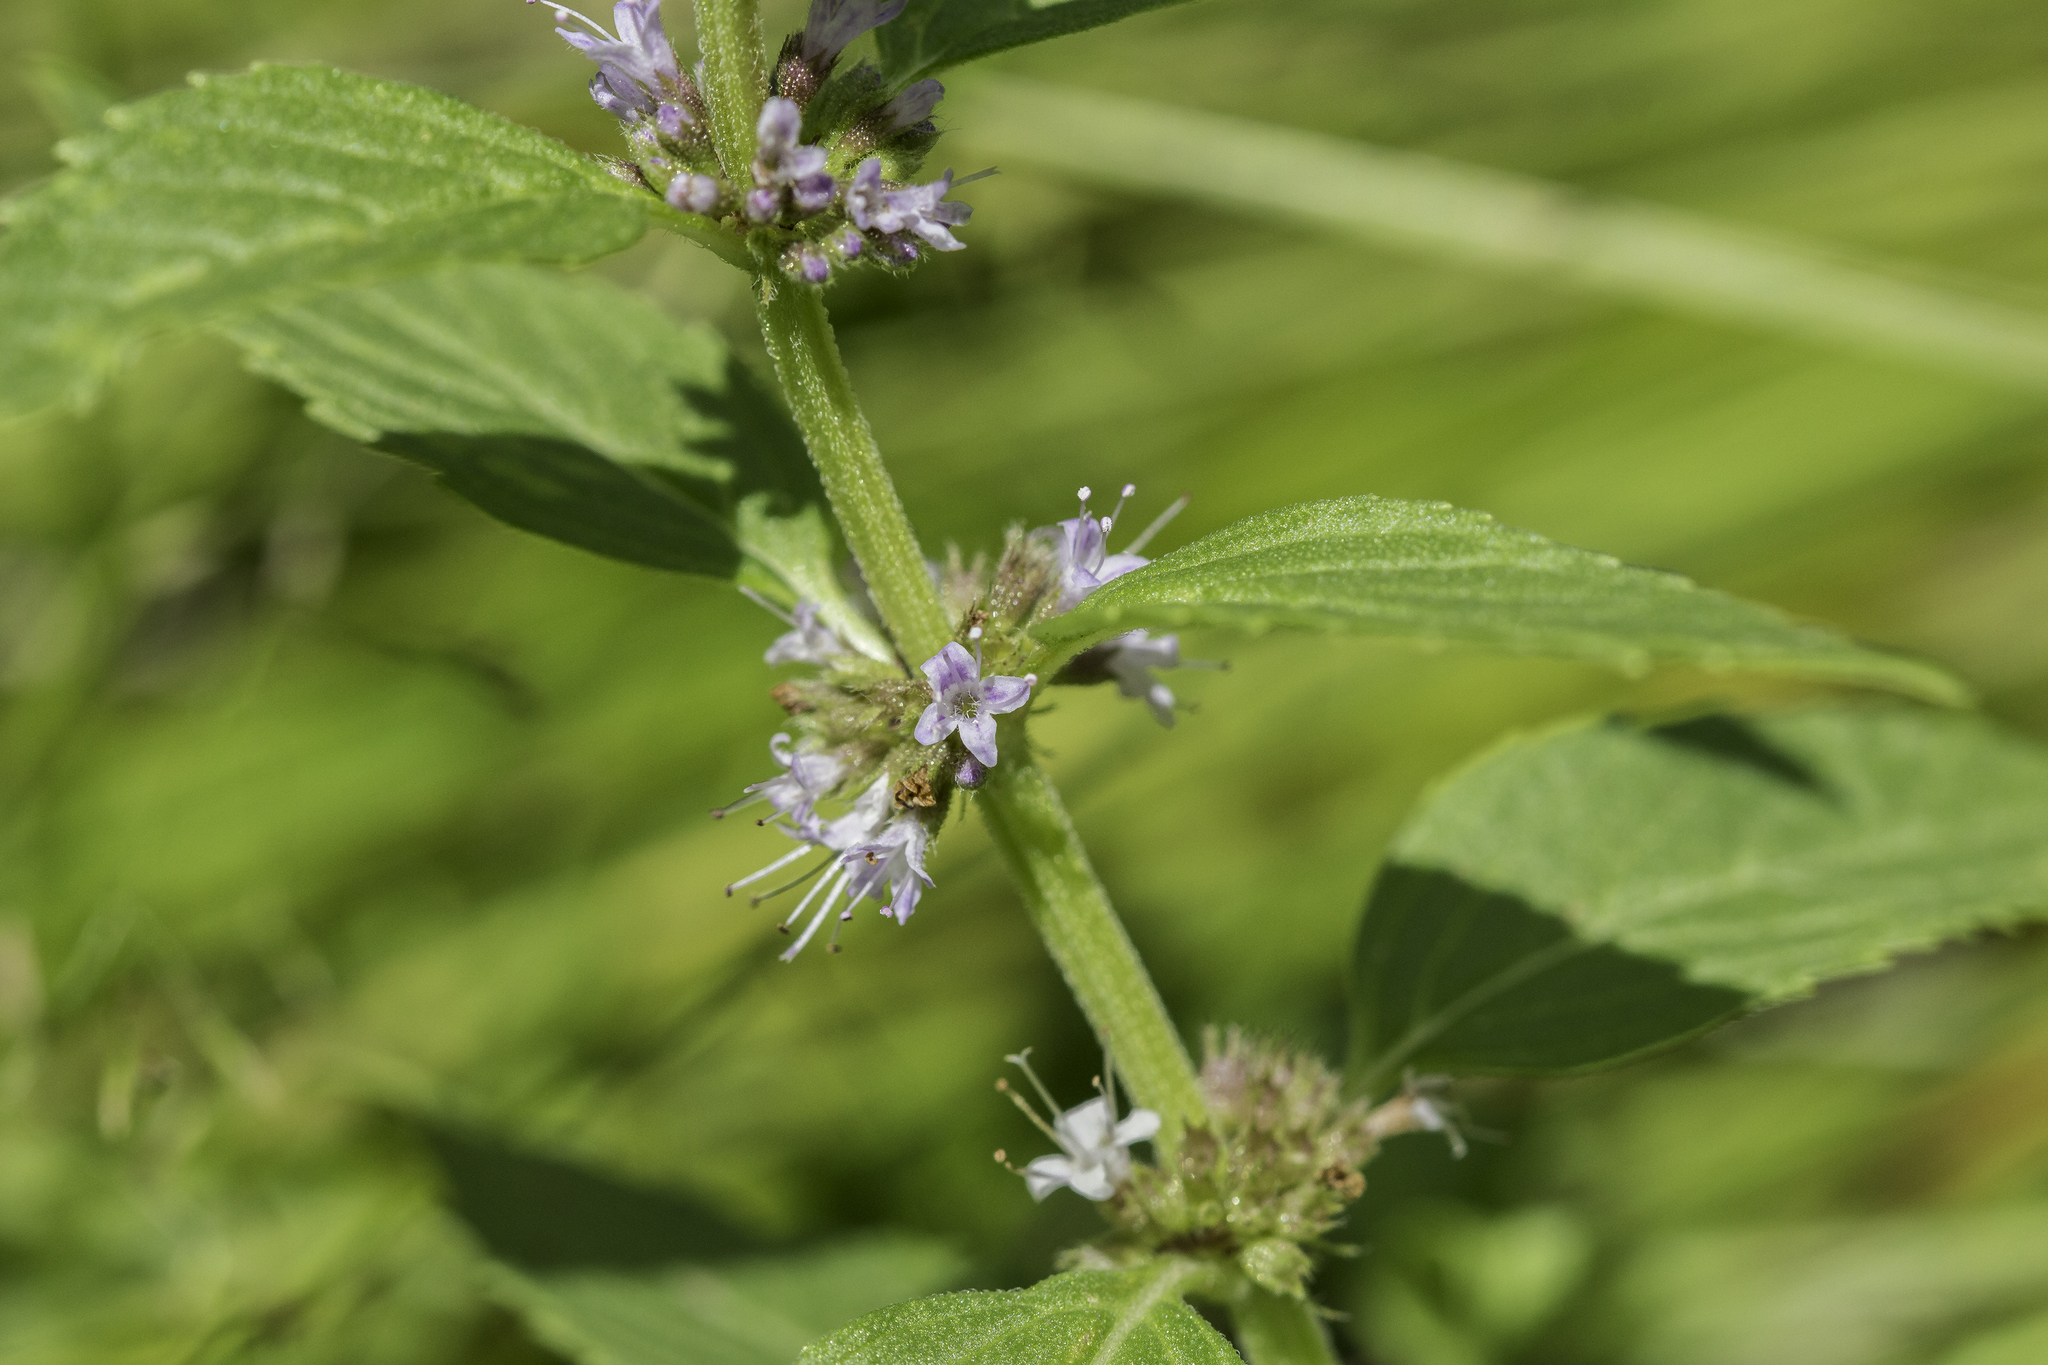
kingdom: Plantae
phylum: Tracheophyta
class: Magnoliopsida
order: Lamiales
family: Lamiaceae
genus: Mentha
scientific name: Mentha canadensis
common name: American corn mint
